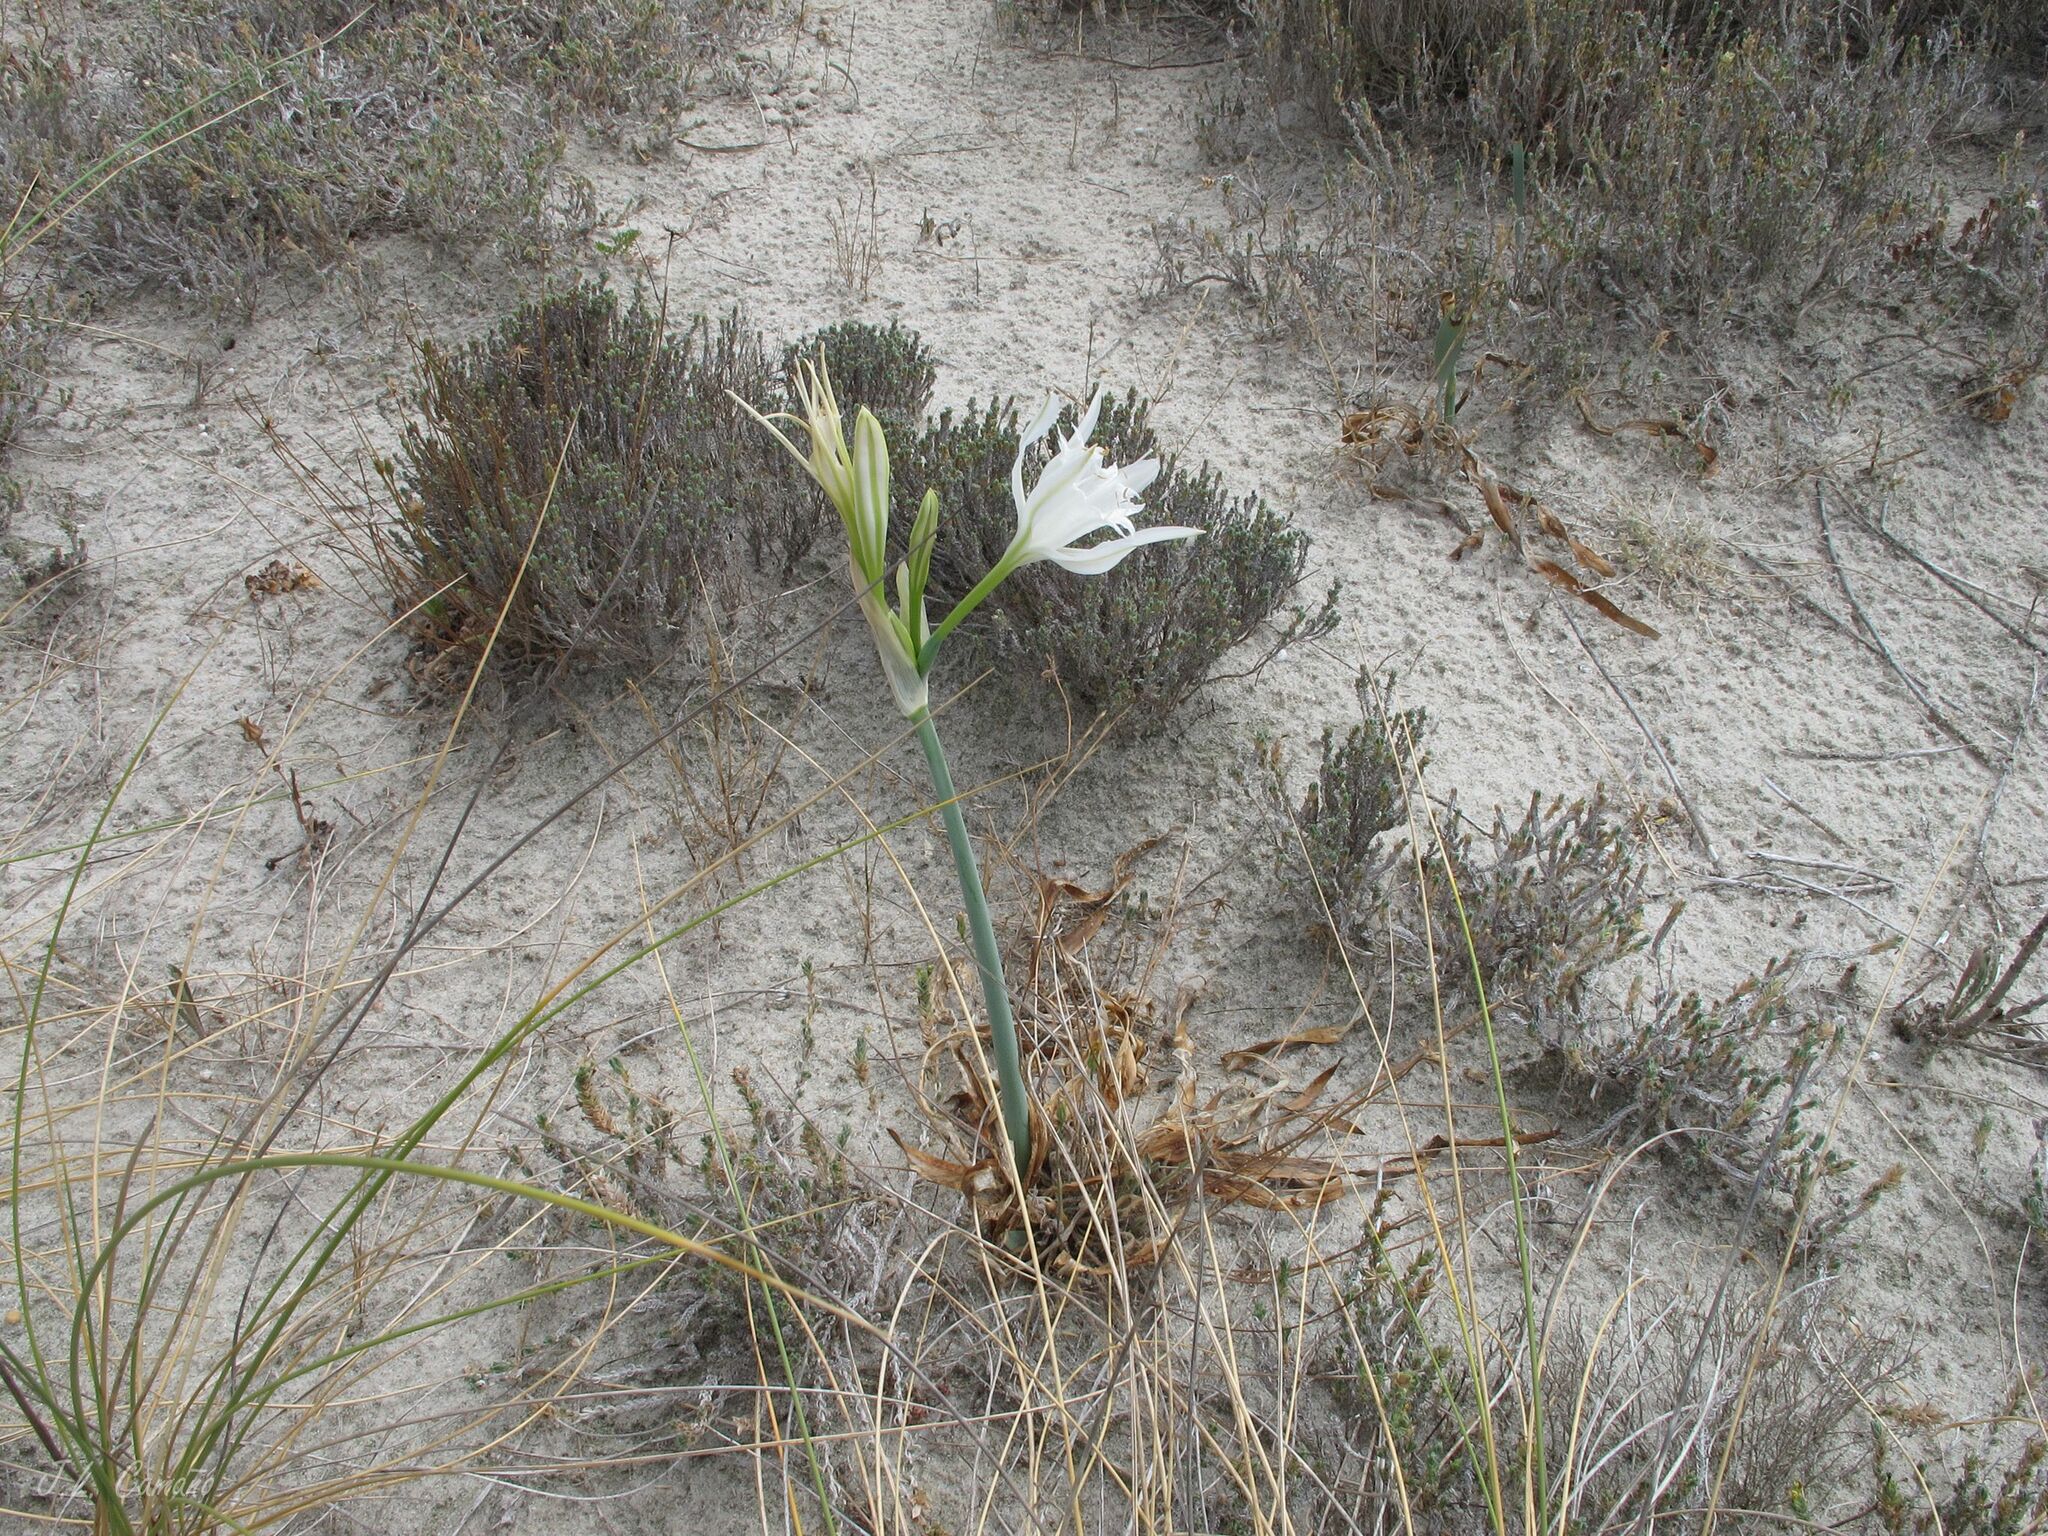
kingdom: Plantae
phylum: Tracheophyta
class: Liliopsida
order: Asparagales
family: Amaryllidaceae
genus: Pancratium
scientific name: Pancratium maritimum
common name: Sea-daffodil
